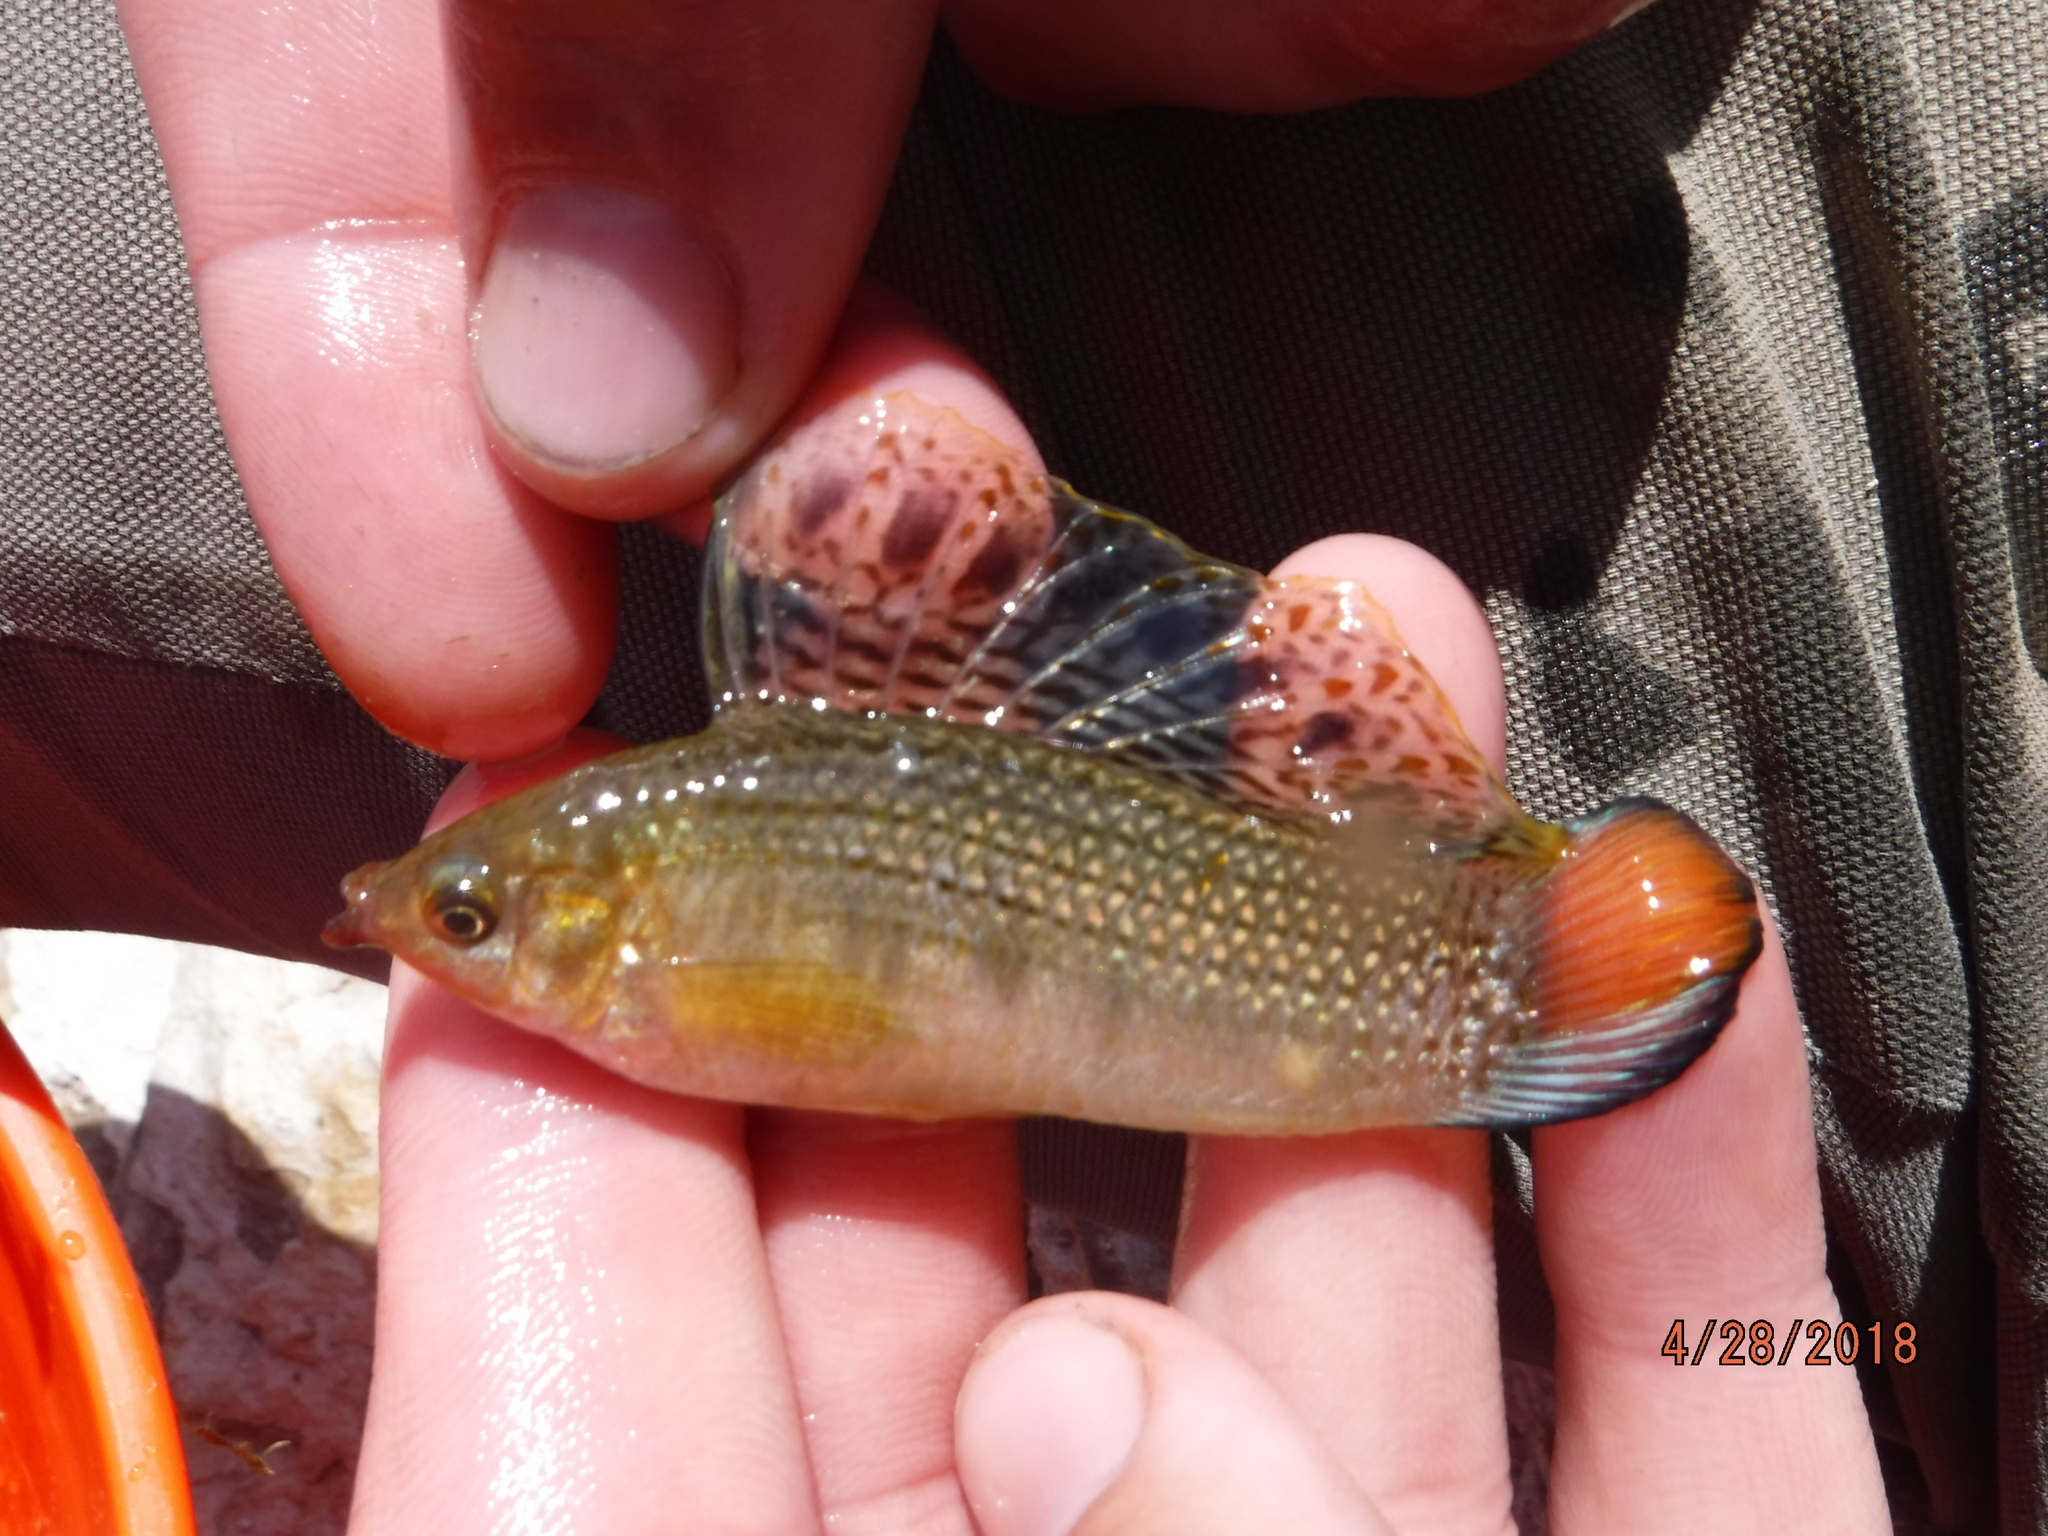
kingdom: Animalia
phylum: Chordata
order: Cyprinodontiformes
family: Poeciliidae
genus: Poecilia
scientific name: Poecilia latipinna
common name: Sailfin molly
